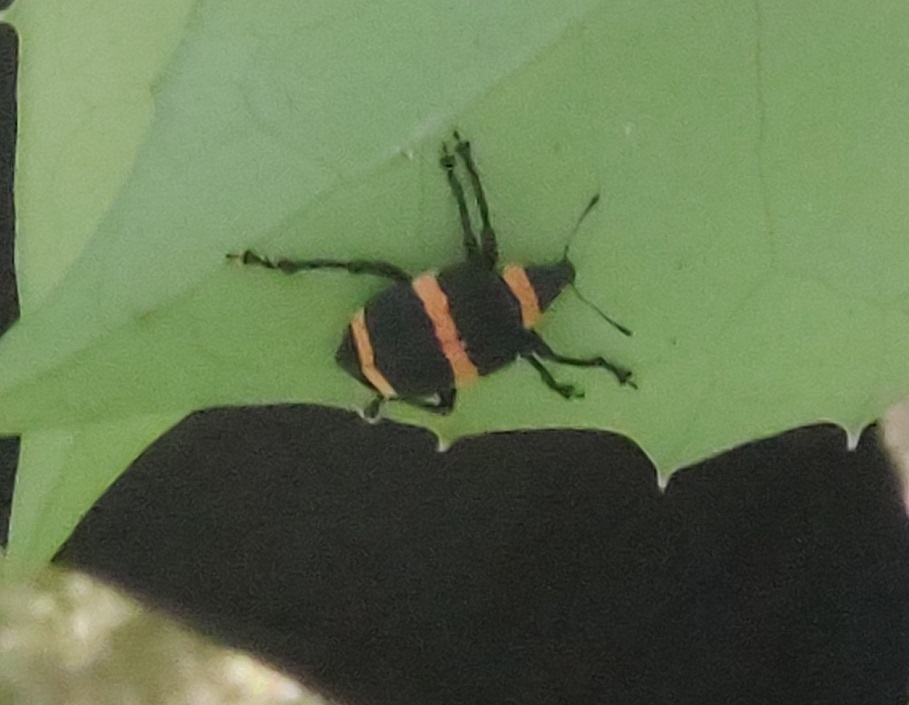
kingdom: Animalia
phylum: Arthropoda
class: Insecta
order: Coleoptera
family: Curculionidae
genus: Entyus
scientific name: Entyus auricinctus
